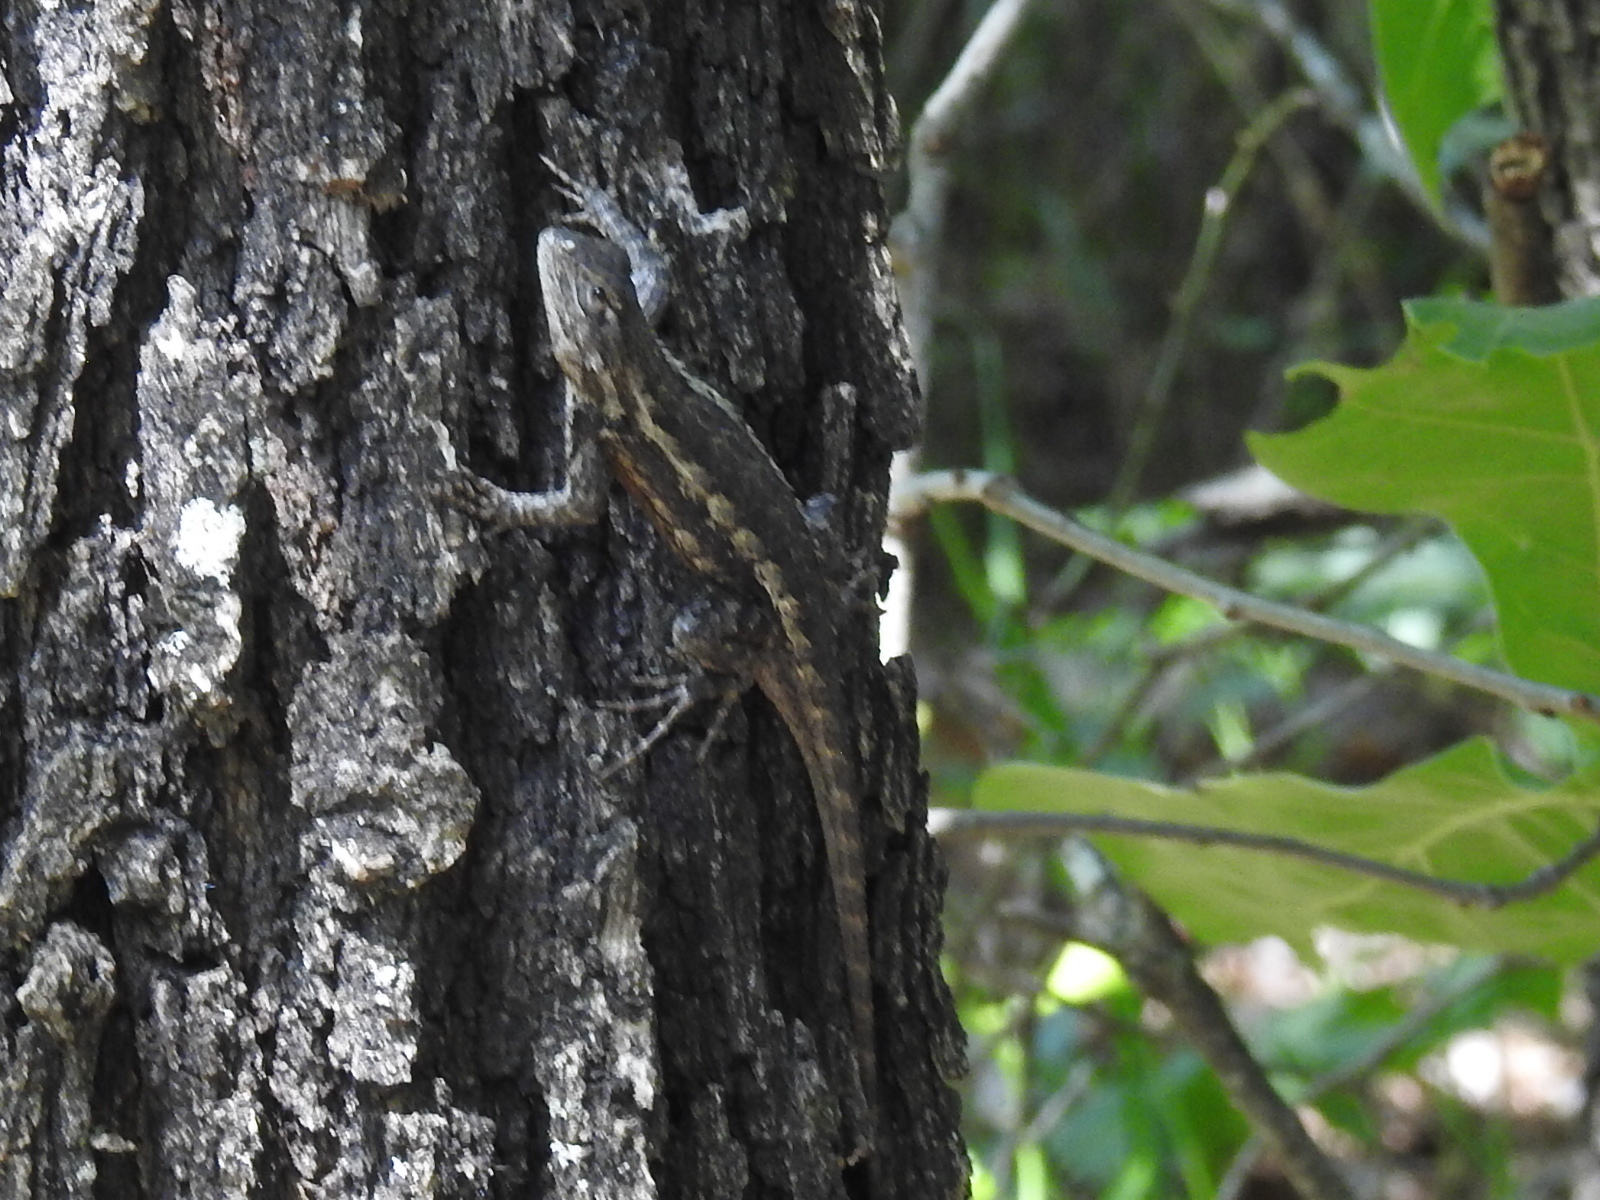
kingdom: Animalia
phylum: Chordata
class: Squamata
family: Phrynosomatidae
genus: Sceloporus
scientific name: Sceloporus olivaceus
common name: Texas spiny lizard
